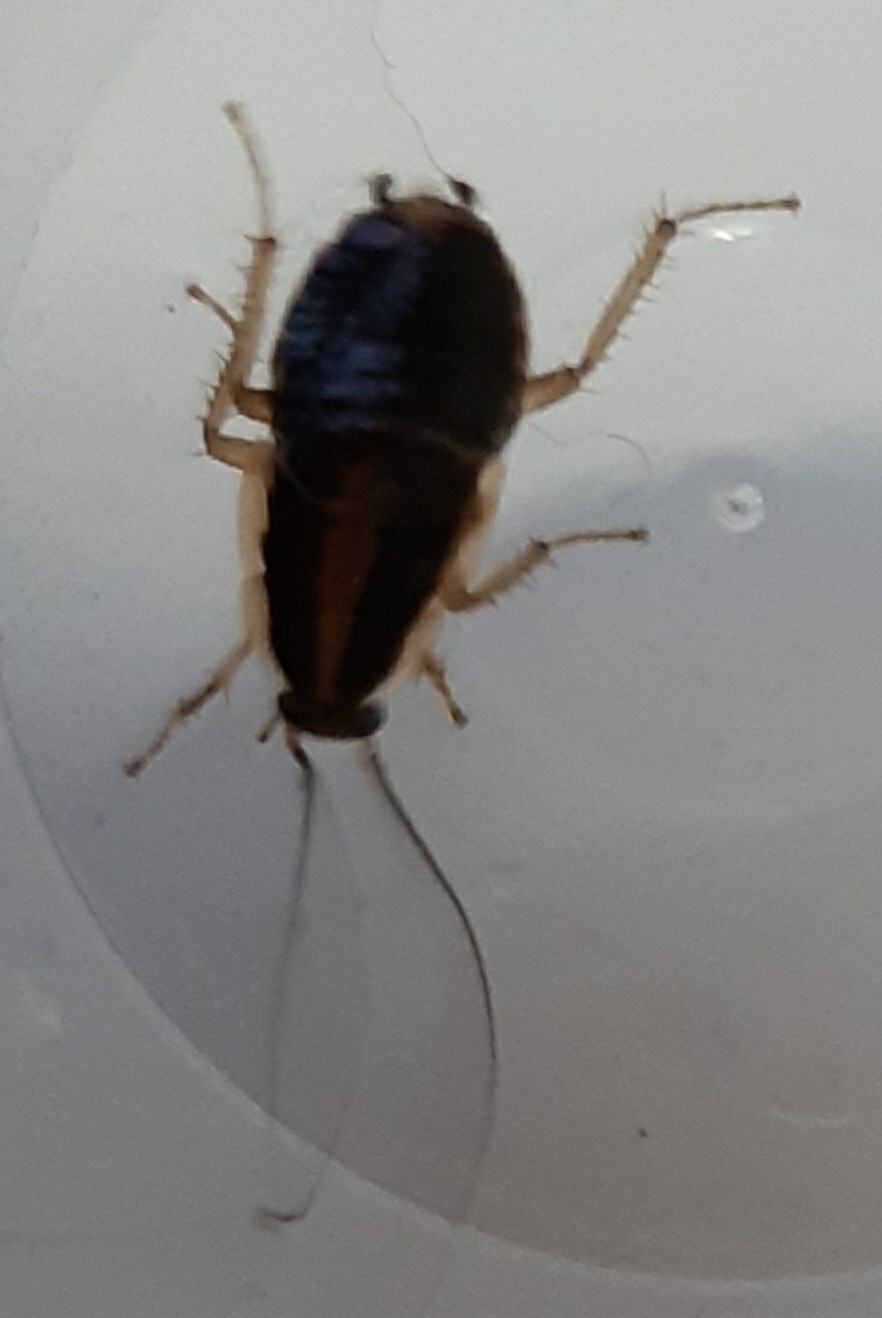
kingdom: Animalia
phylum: Arthropoda
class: Insecta
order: Blattodea
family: Ectobiidae
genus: Blattella
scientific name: Blattella germanica
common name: German cockroach
